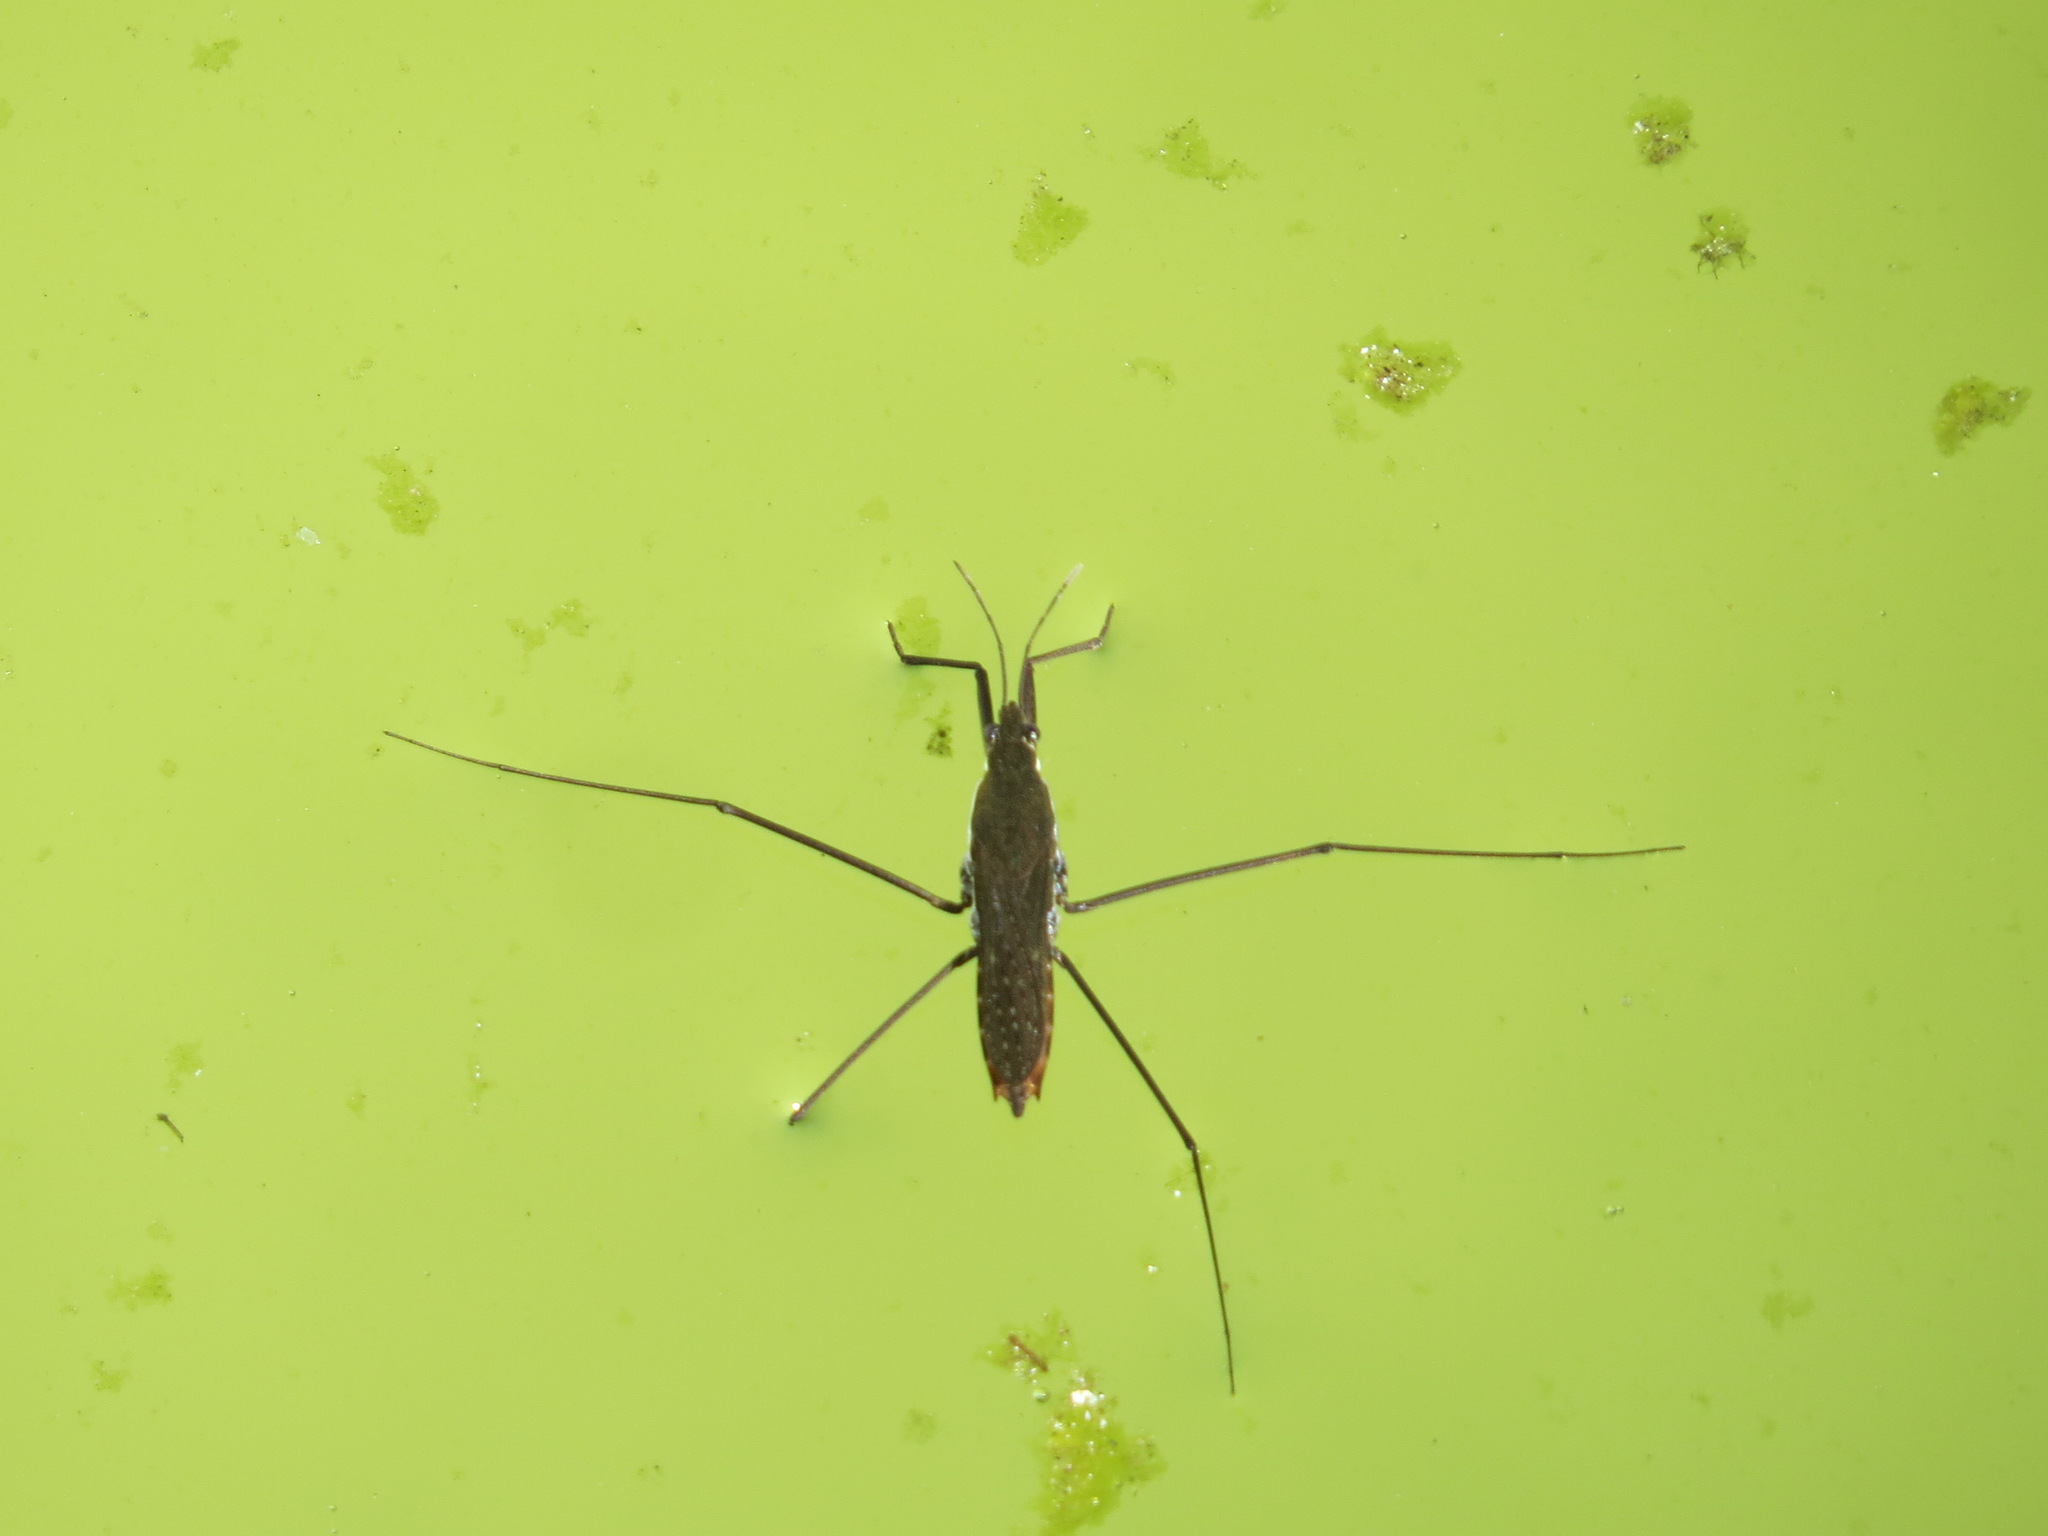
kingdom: Animalia
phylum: Arthropoda
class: Insecta
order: Hemiptera
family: Gerridae
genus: Aquarius
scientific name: Aquarius remigis
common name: Common water strider
